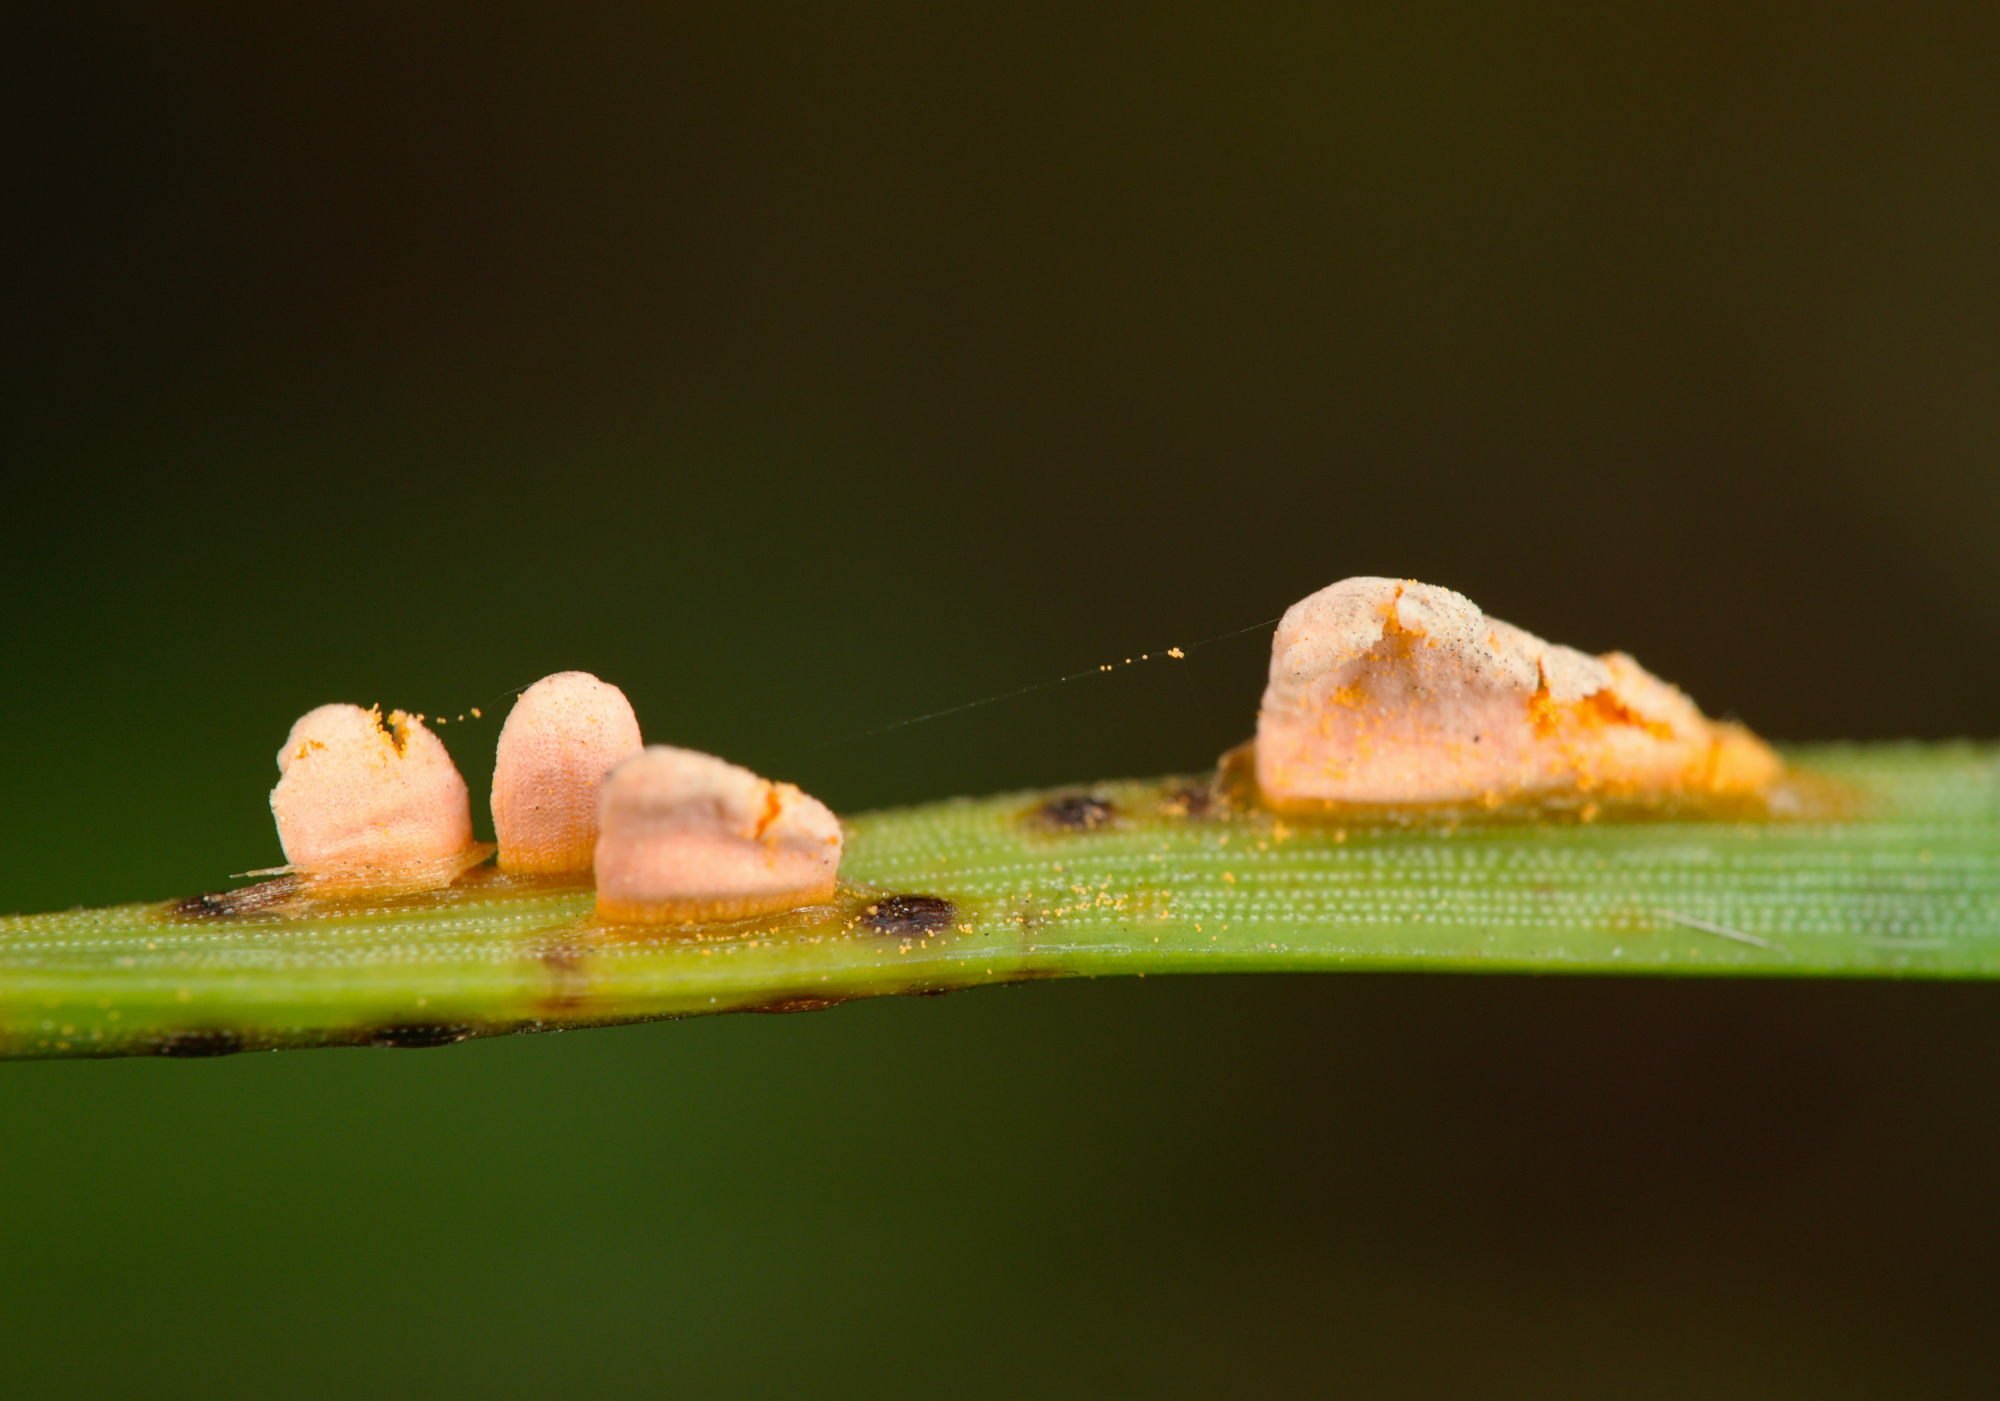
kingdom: Fungi
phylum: Basidiomycota
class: Pucciniomycetes
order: Pucciniales
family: Cronartiaceae
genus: Peridermium
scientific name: Peridermium oblongisporium
